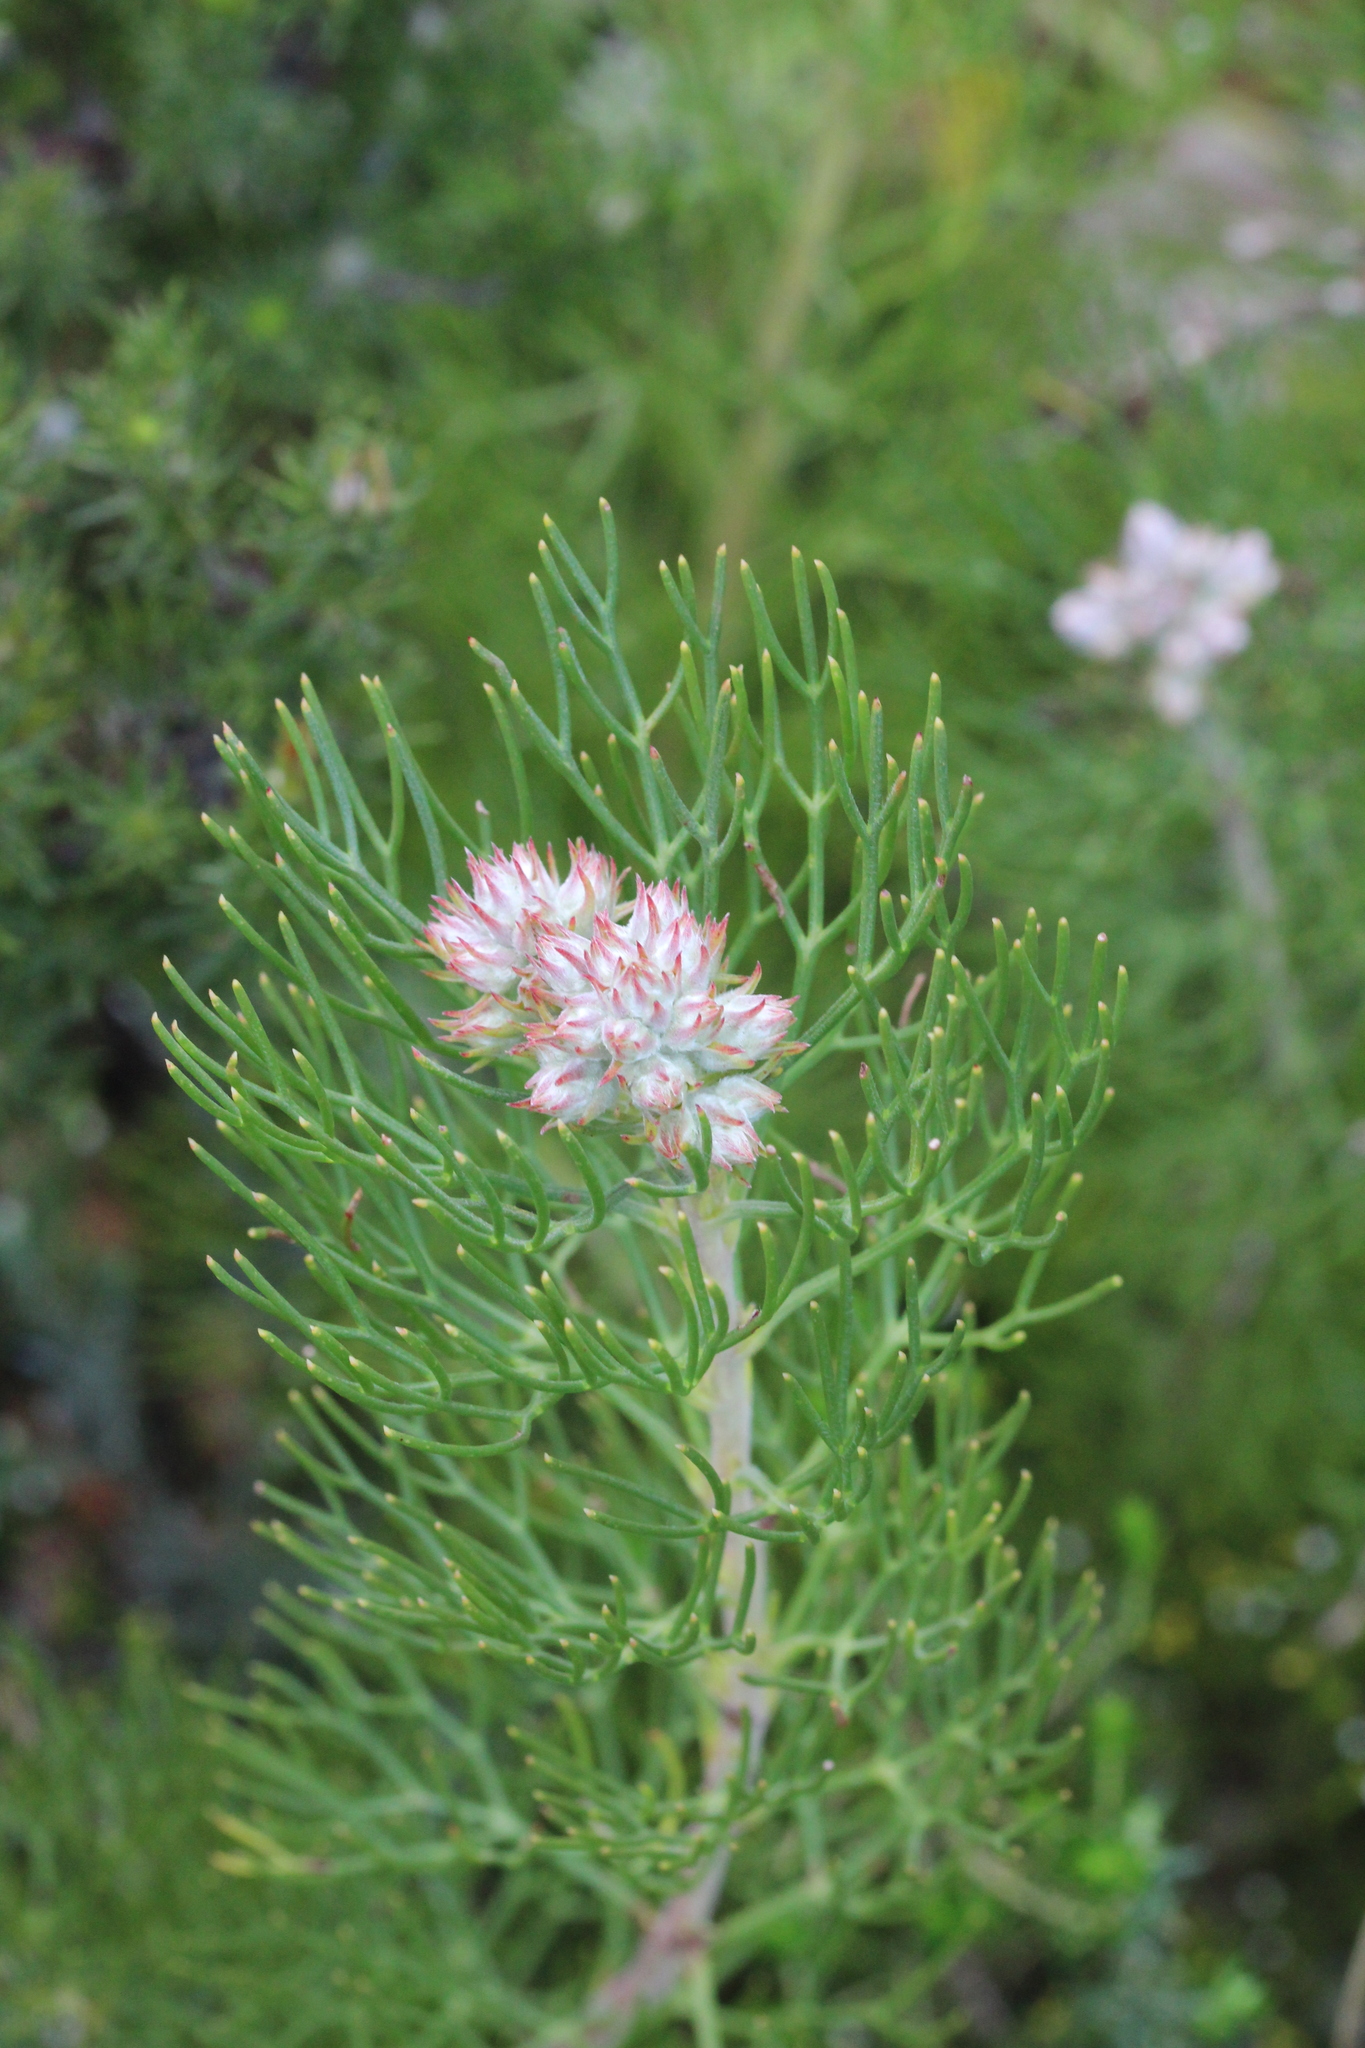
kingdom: Plantae
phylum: Tracheophyta
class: Magnoliopsida
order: Proteales
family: Proteaceae
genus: Serruria
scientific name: Serruria ascendens
